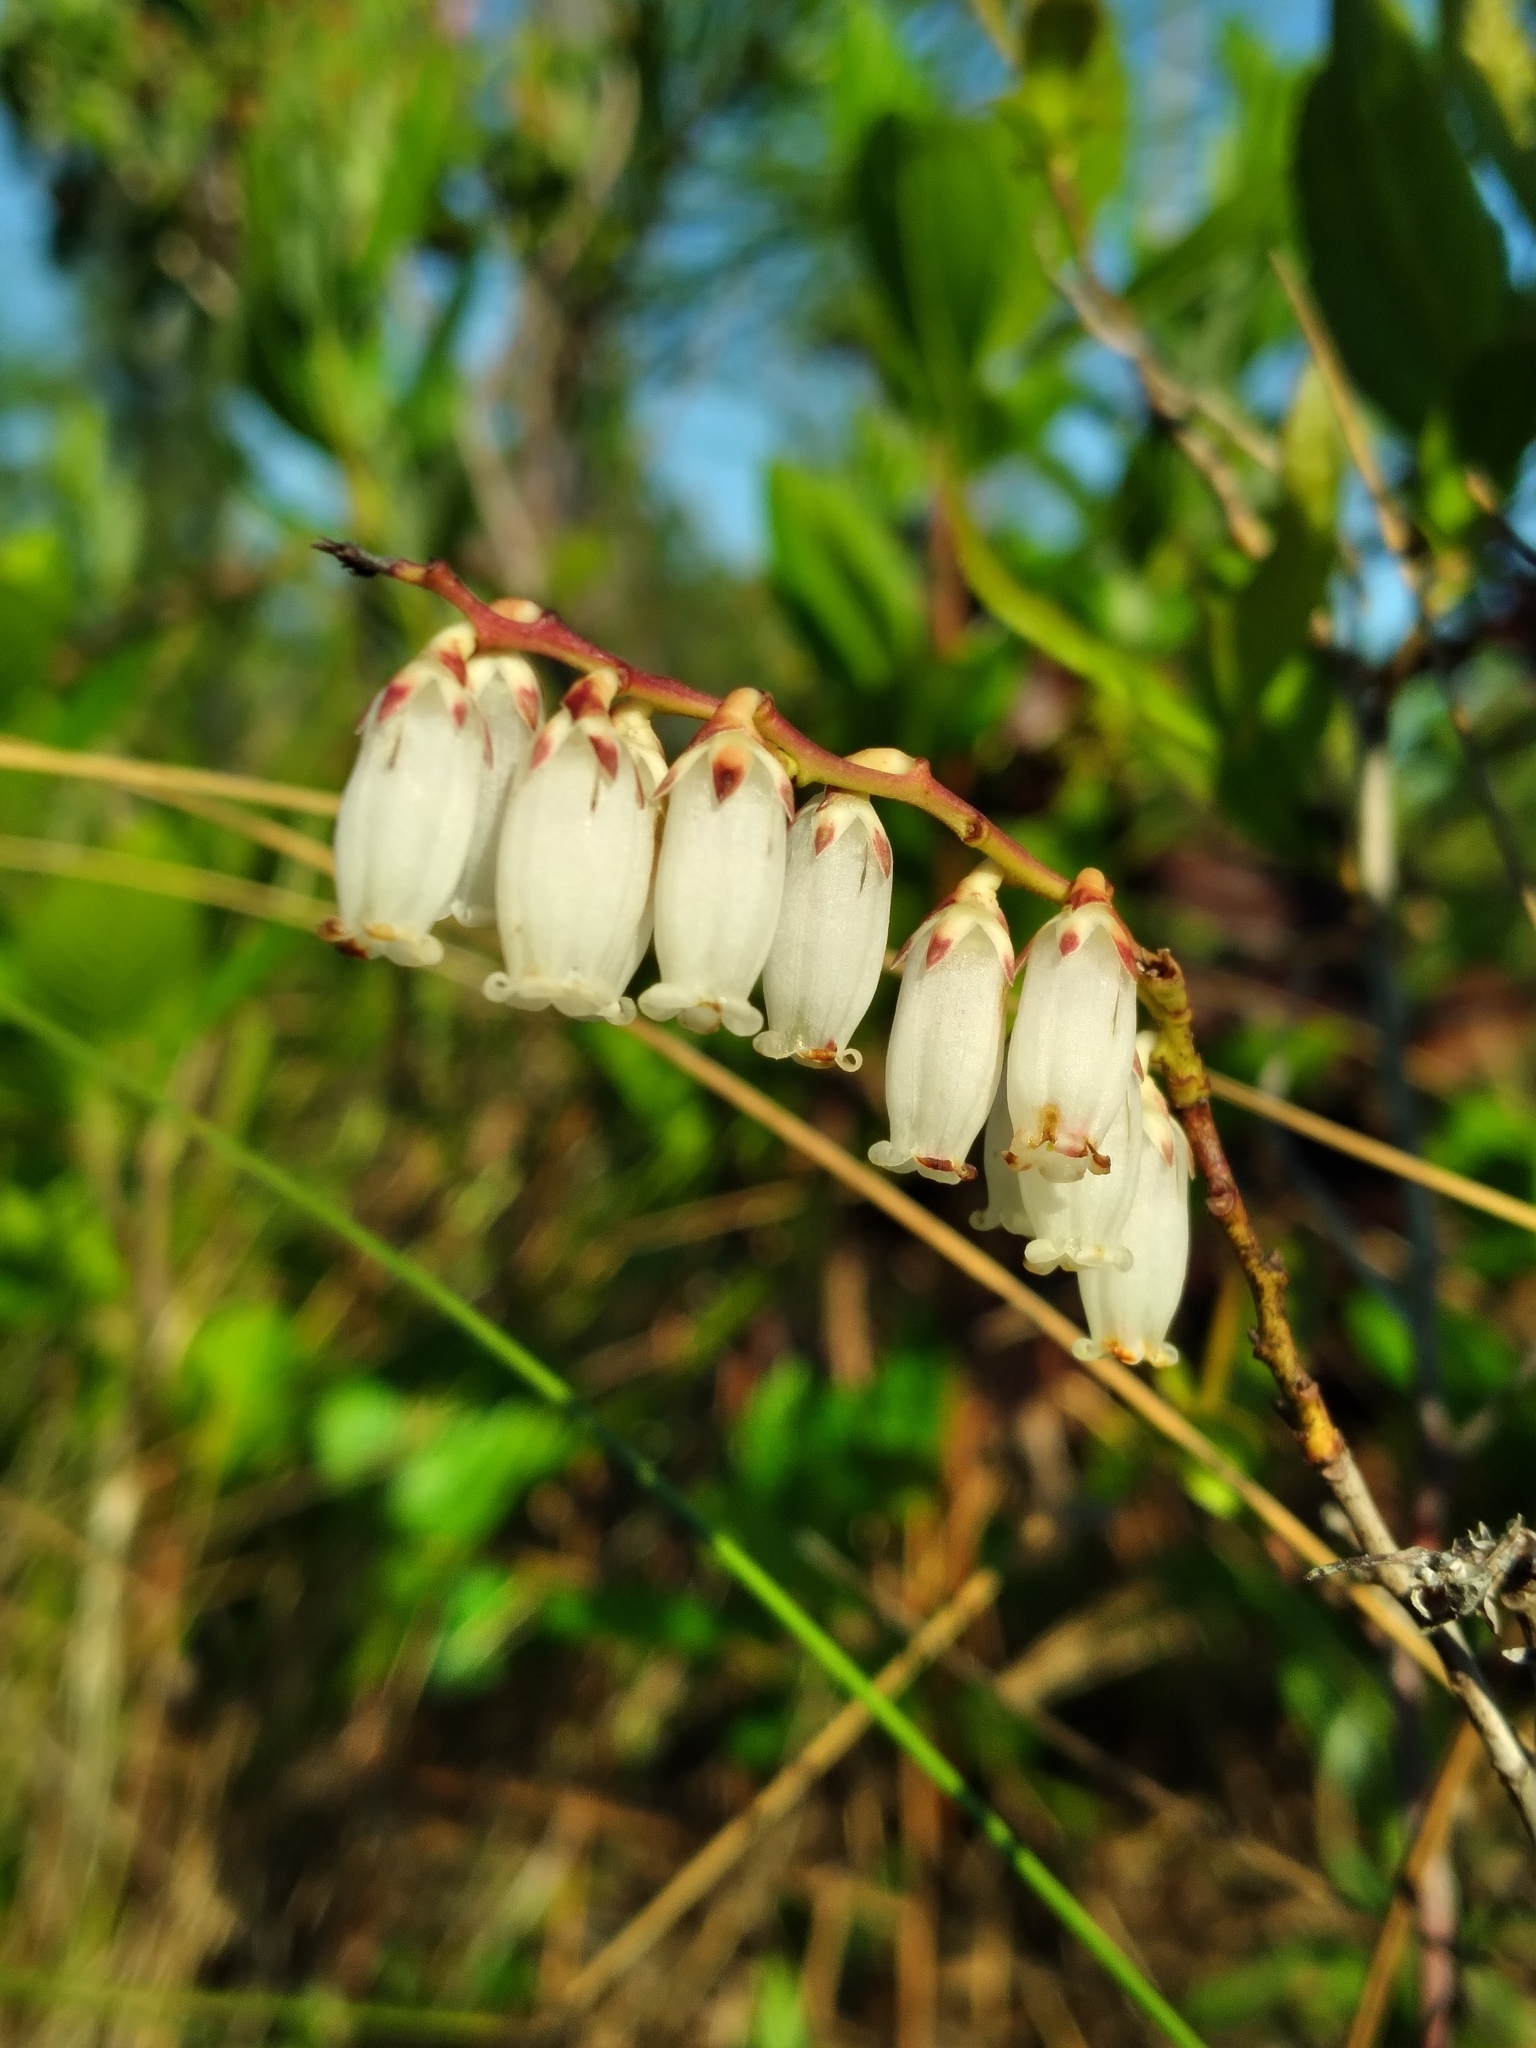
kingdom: Plantae
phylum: Tracheophyta
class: Magnoliopsida
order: Ericales
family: Ericaceae
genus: Eubotrys
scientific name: Eubotrys racemosa
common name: Fetterbush
